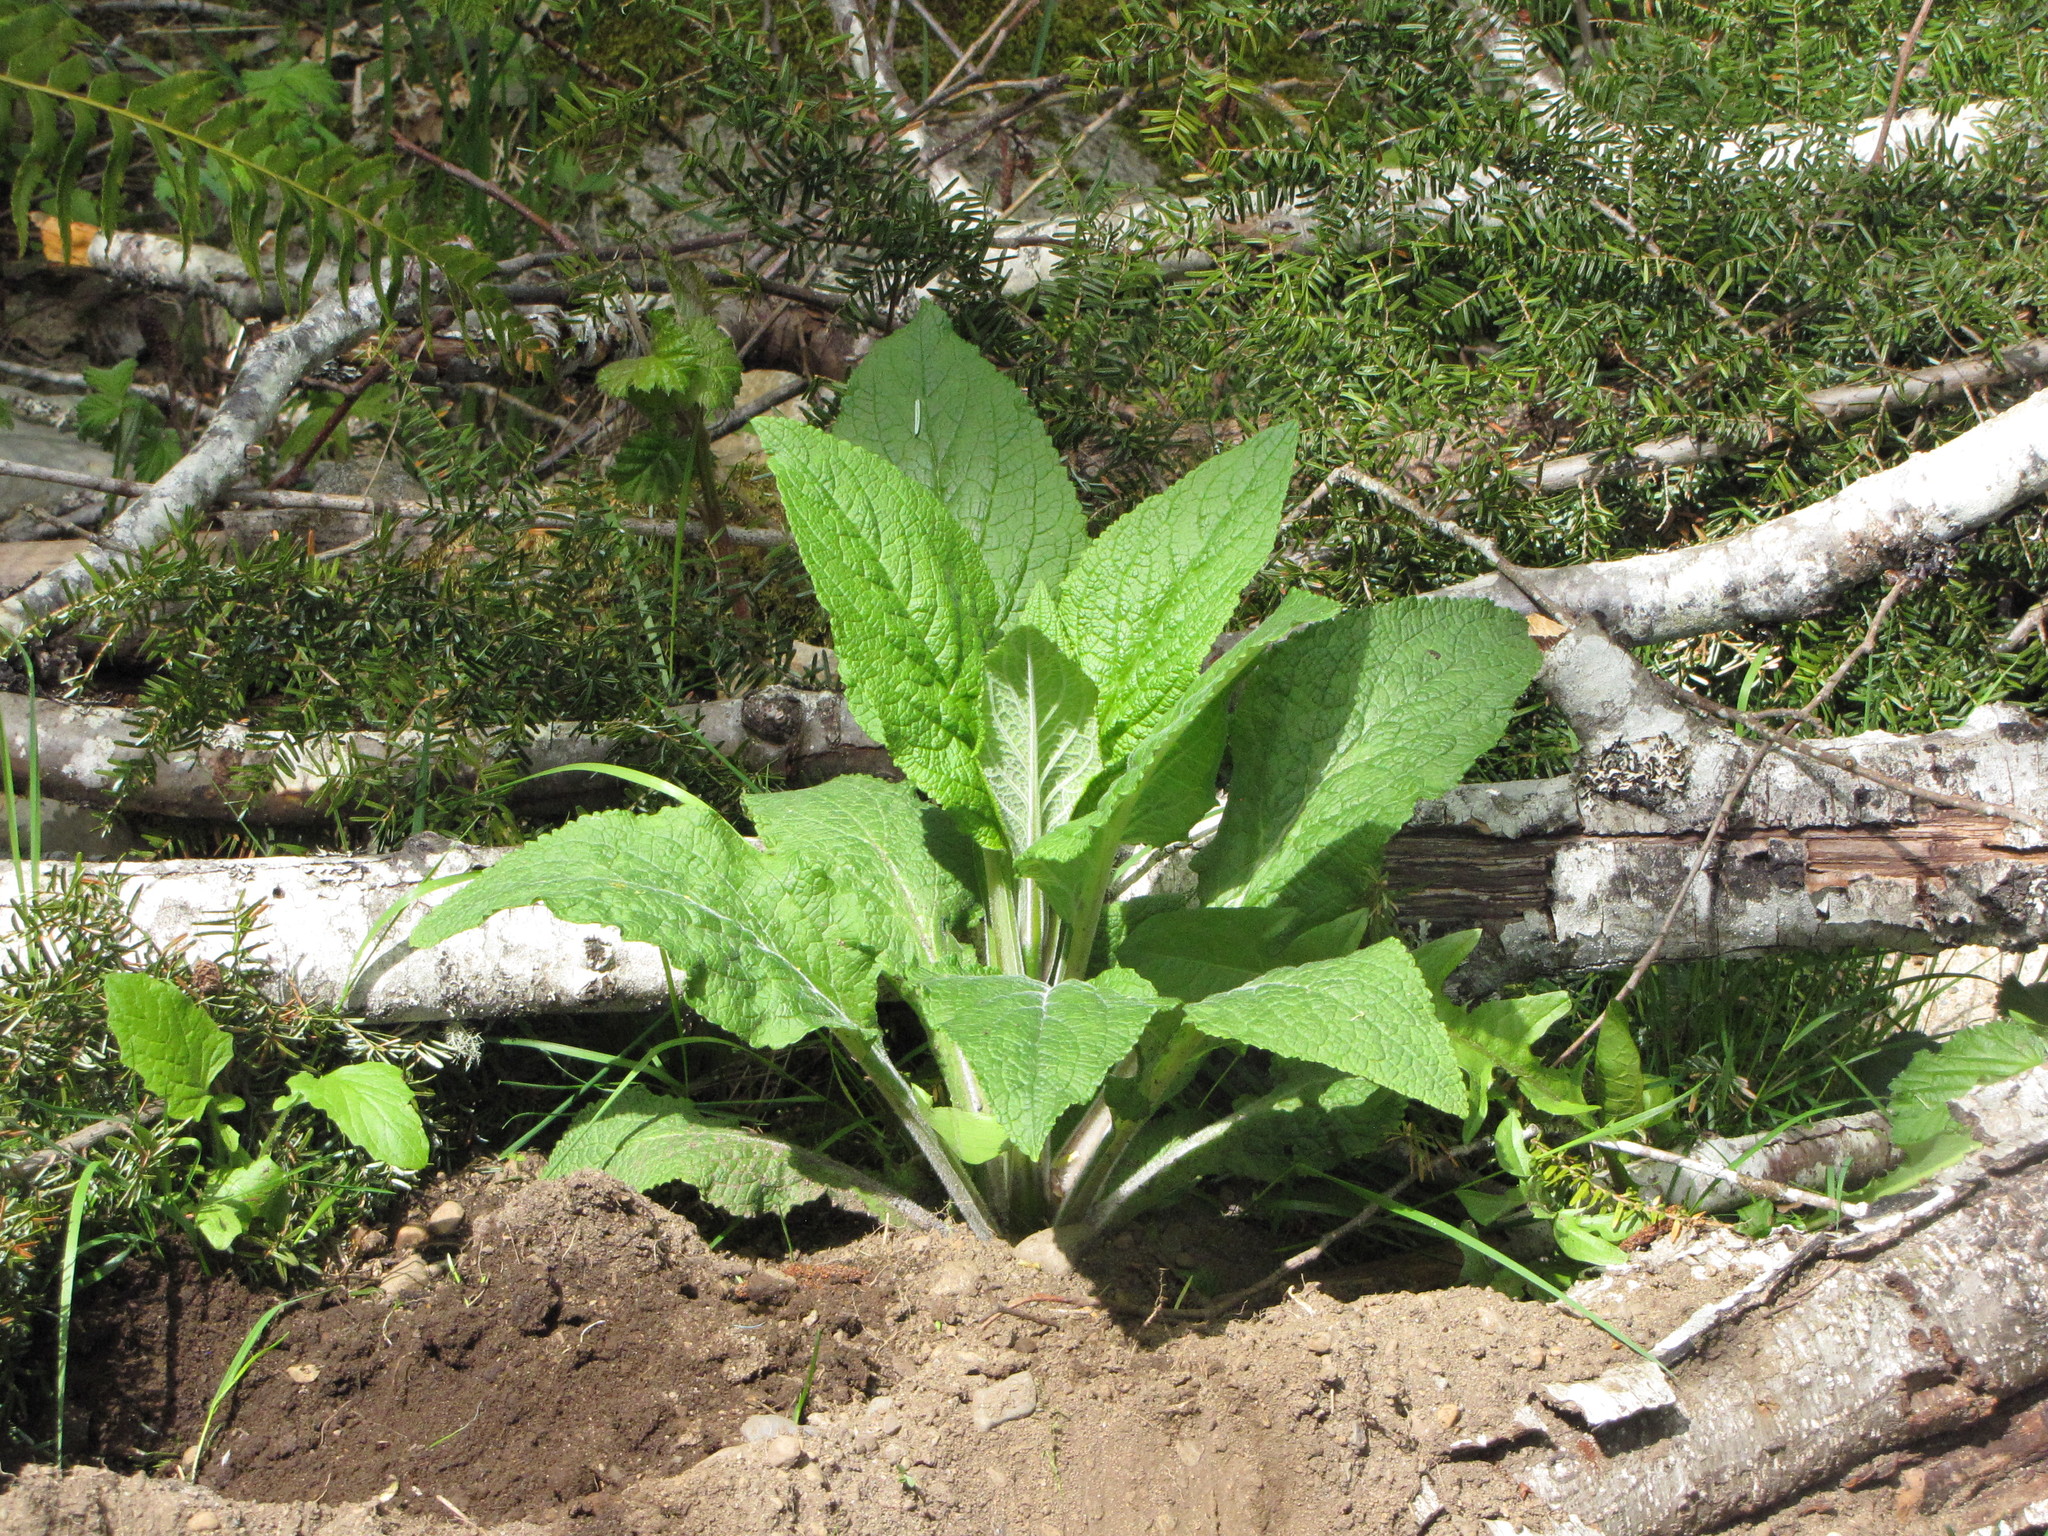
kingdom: Plantae
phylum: Tracheophyta
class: Magnoliopsida
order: Lamiales
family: Plantaginaceae
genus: Digitalis
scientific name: Digitalis purpurea
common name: Foxglove
